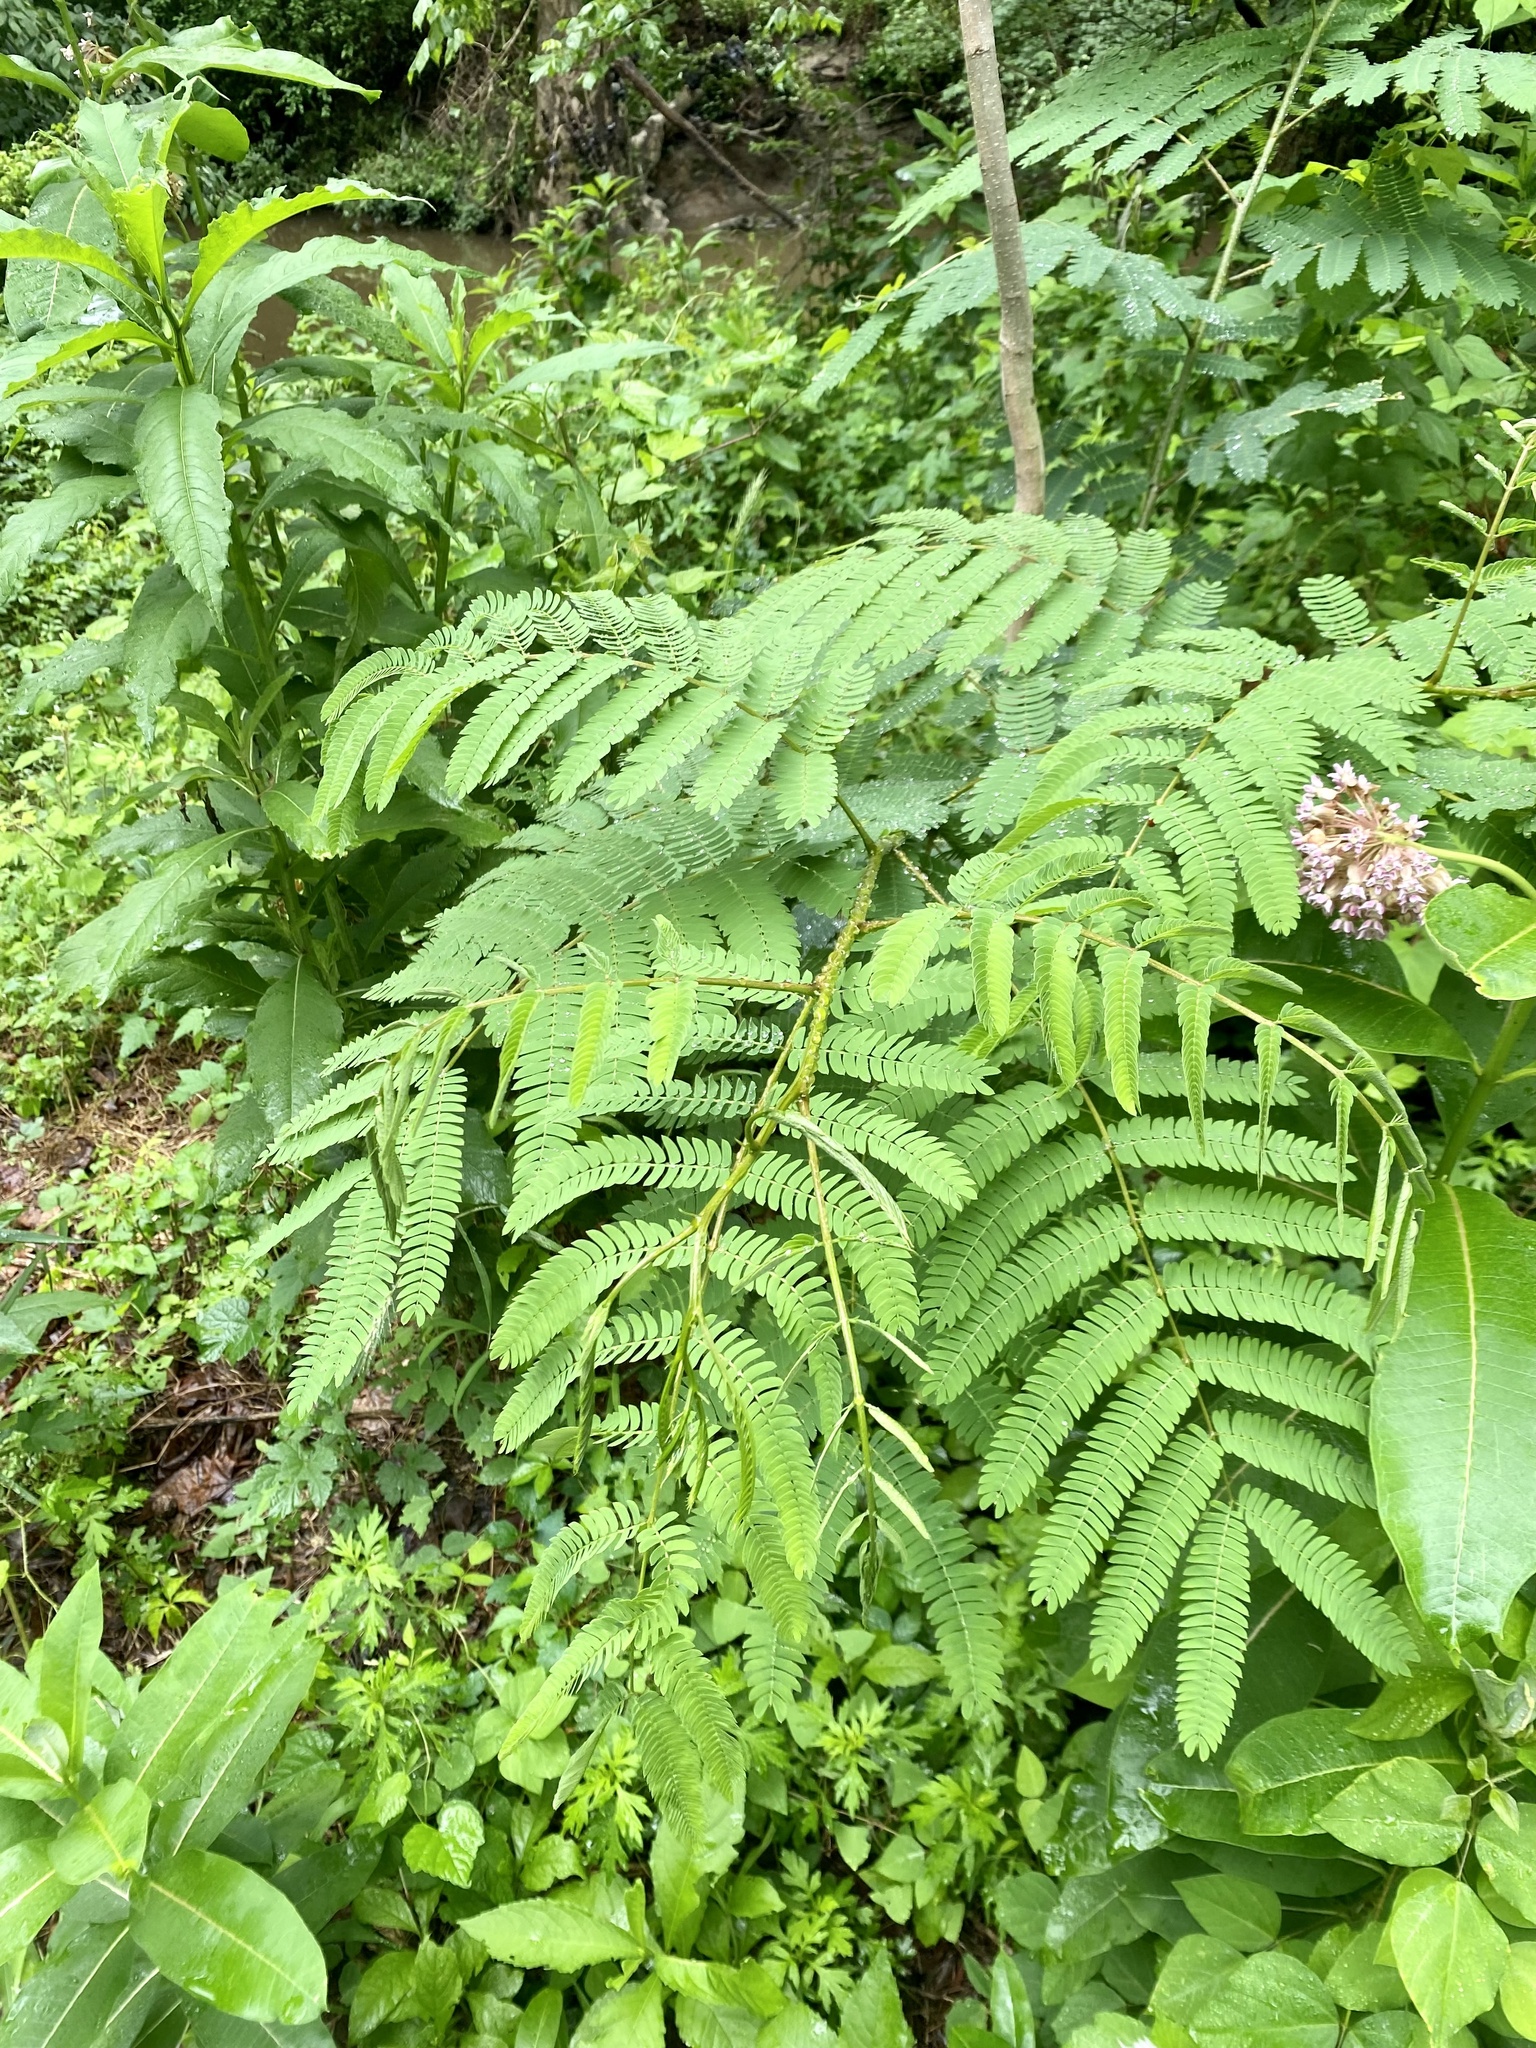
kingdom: Plantae
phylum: Tracheophyta
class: Magnoliopsida
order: Fabales
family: Fabaceae
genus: Albizia
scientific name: Albizia julibrissin
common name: Silktree
